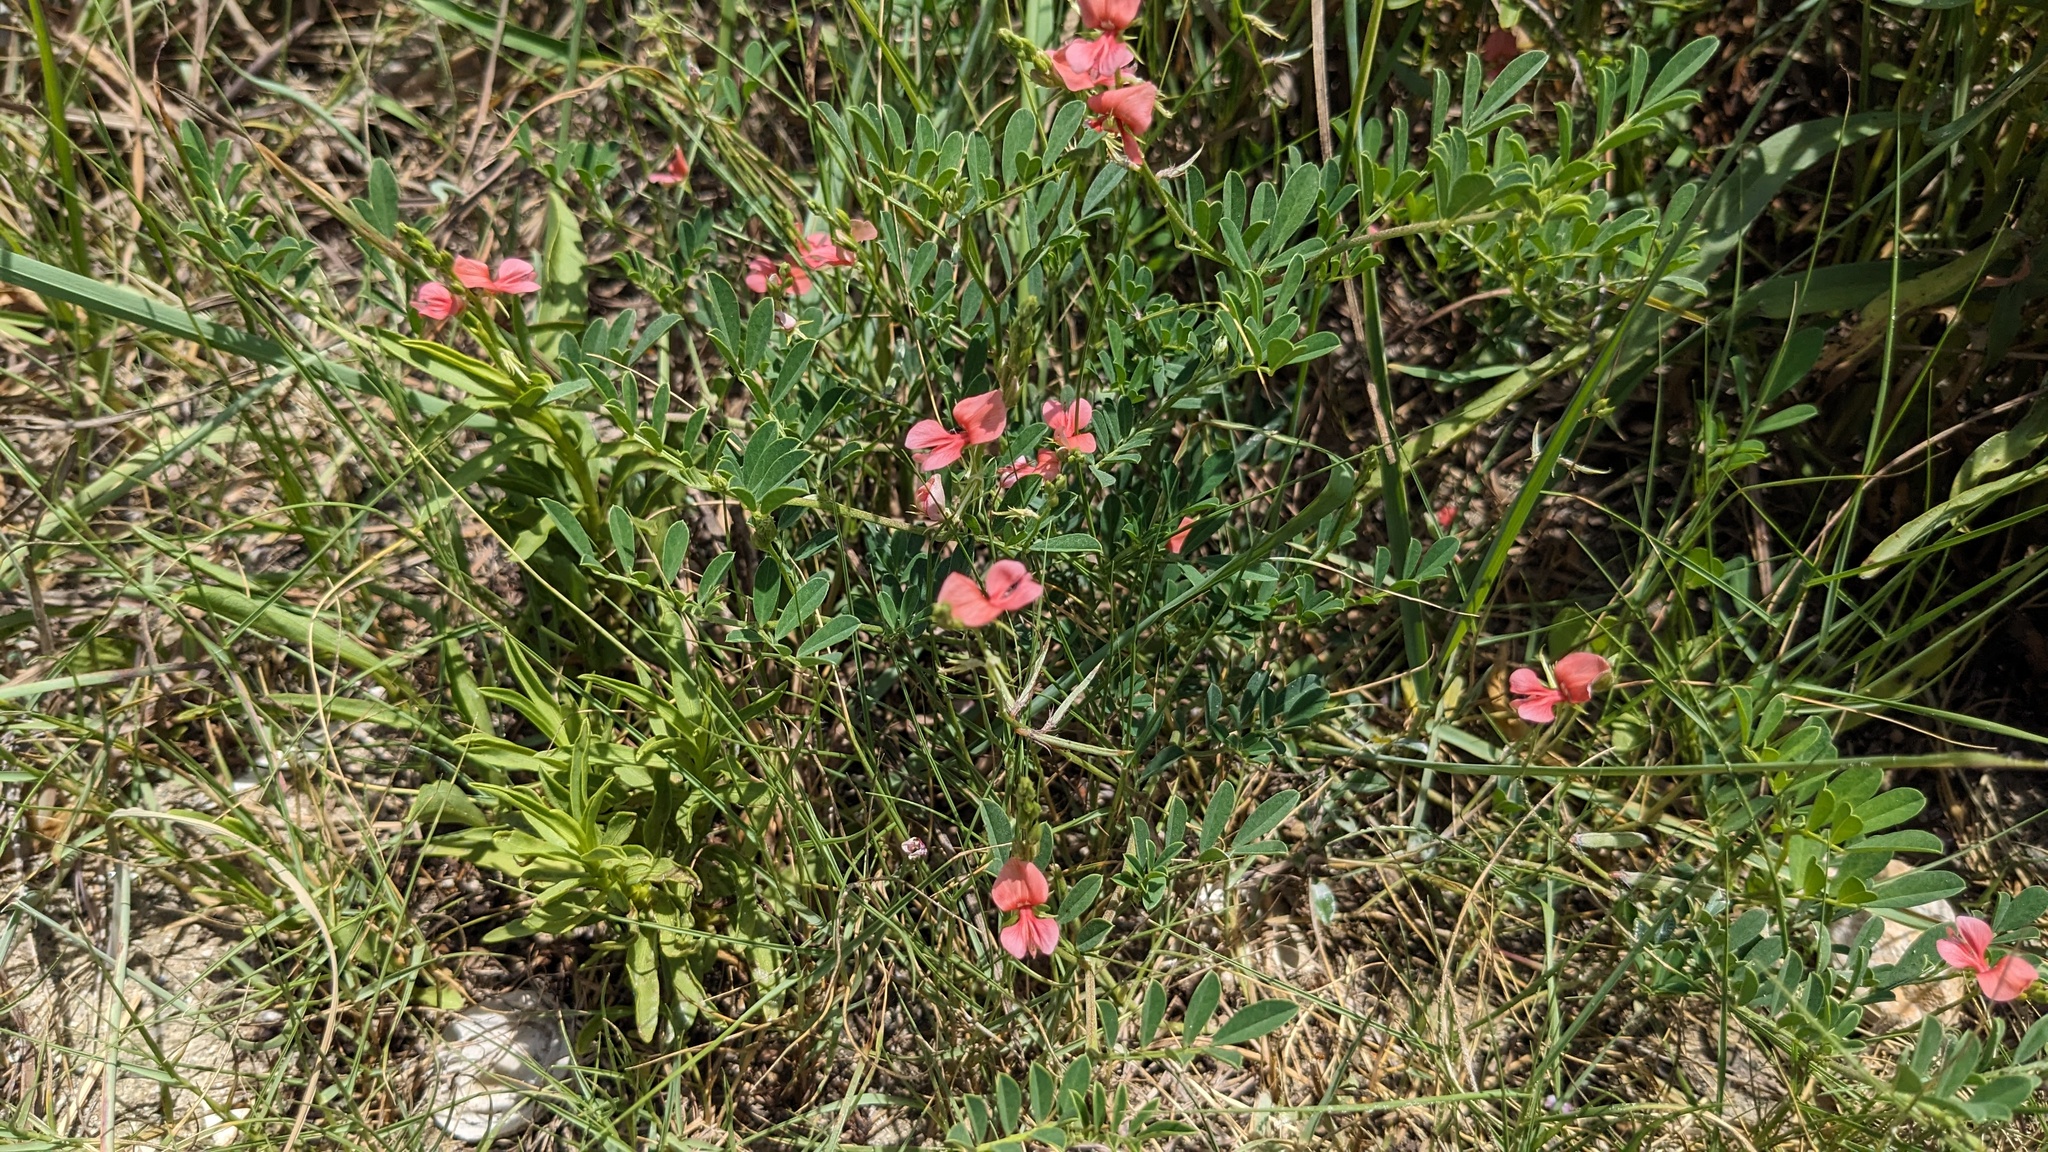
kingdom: Plantae
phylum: Tracheophyta
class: Magnoliopsida
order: Fabales
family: Fabaceae
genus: Indigofera
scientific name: Indigofera miniata
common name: Coast indigo
